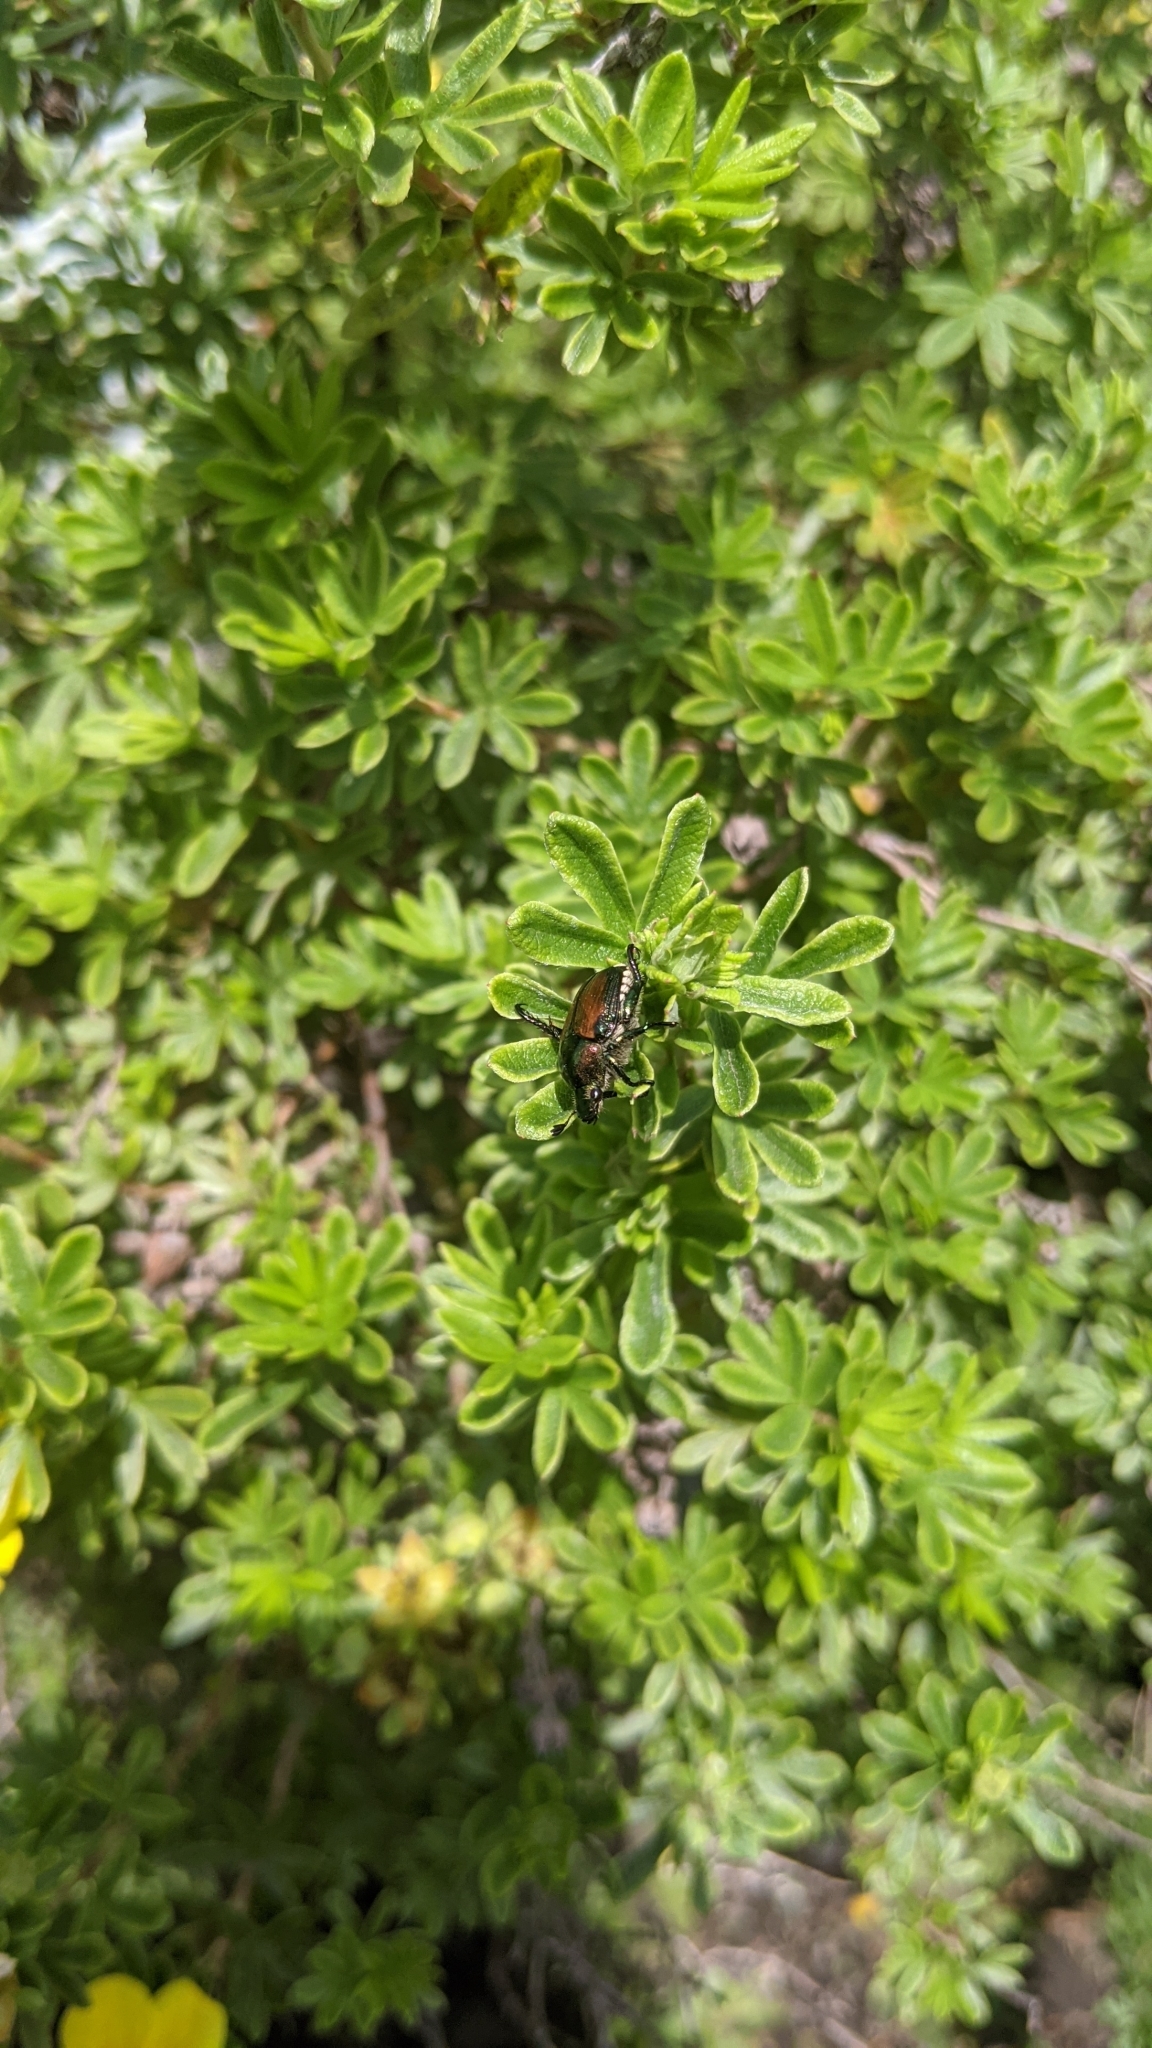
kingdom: Animalia
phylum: Arthropoda
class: Insecta
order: Coleoptera
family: Scarabaeidae
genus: Popillia
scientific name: Popillia japonica
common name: Japanese beetle
